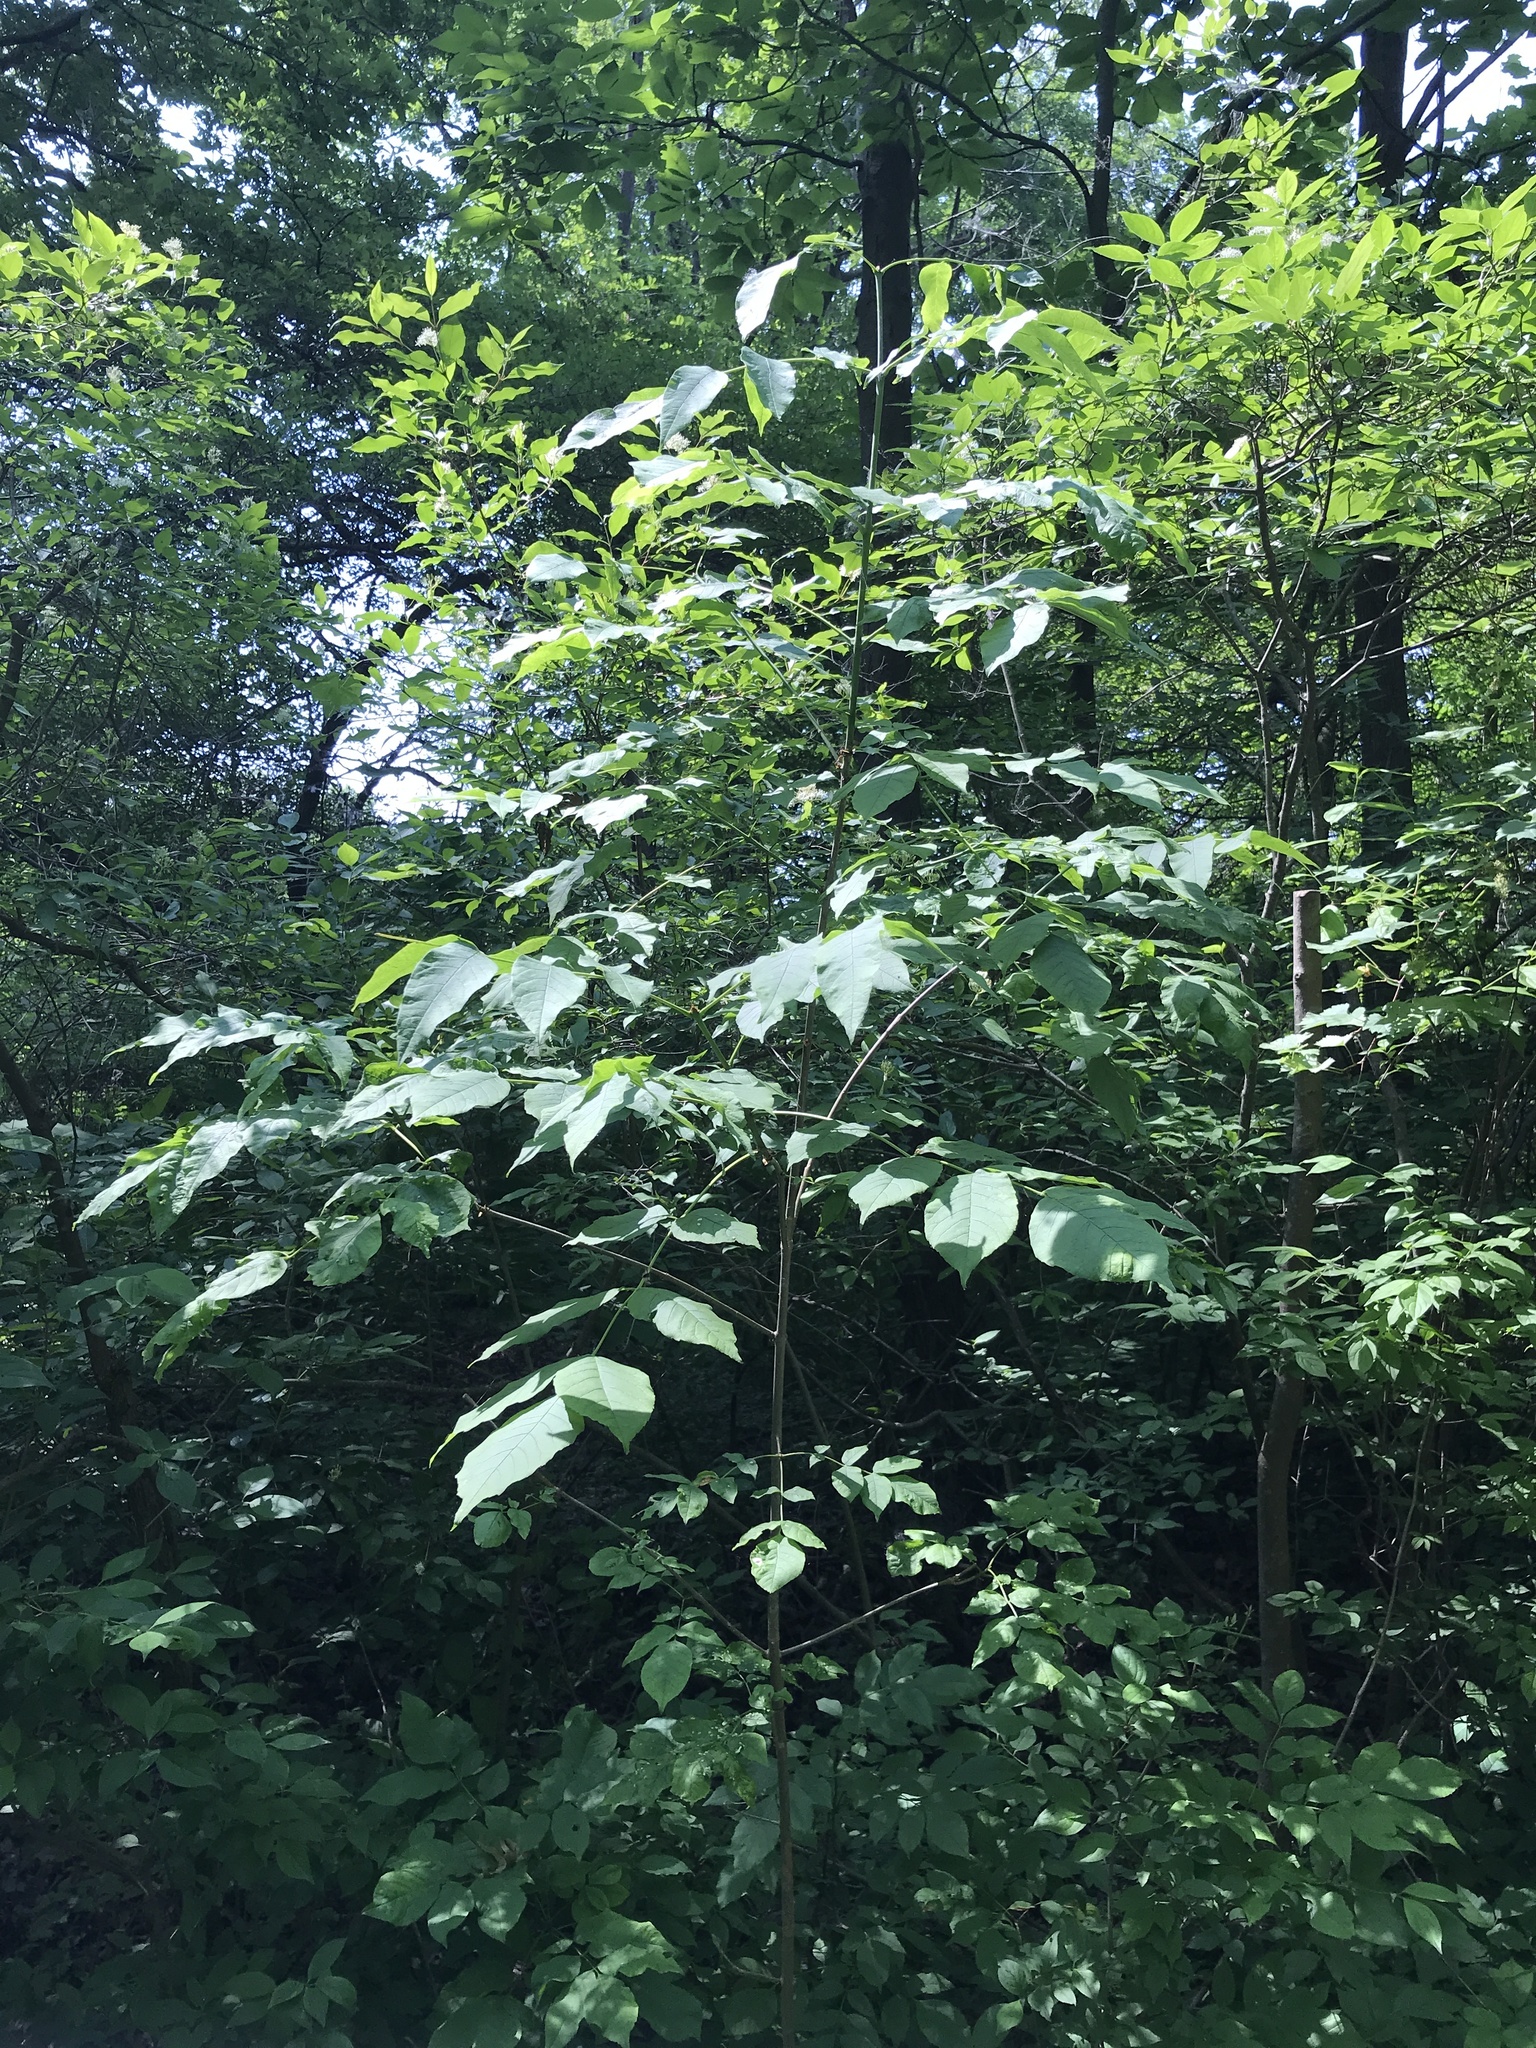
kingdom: Plantae
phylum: Tracheophyta
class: Magnoliopsida
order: Lamiales
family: Oleaceae
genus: Fraxinus
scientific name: Fraxinus nigra
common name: Black ash
